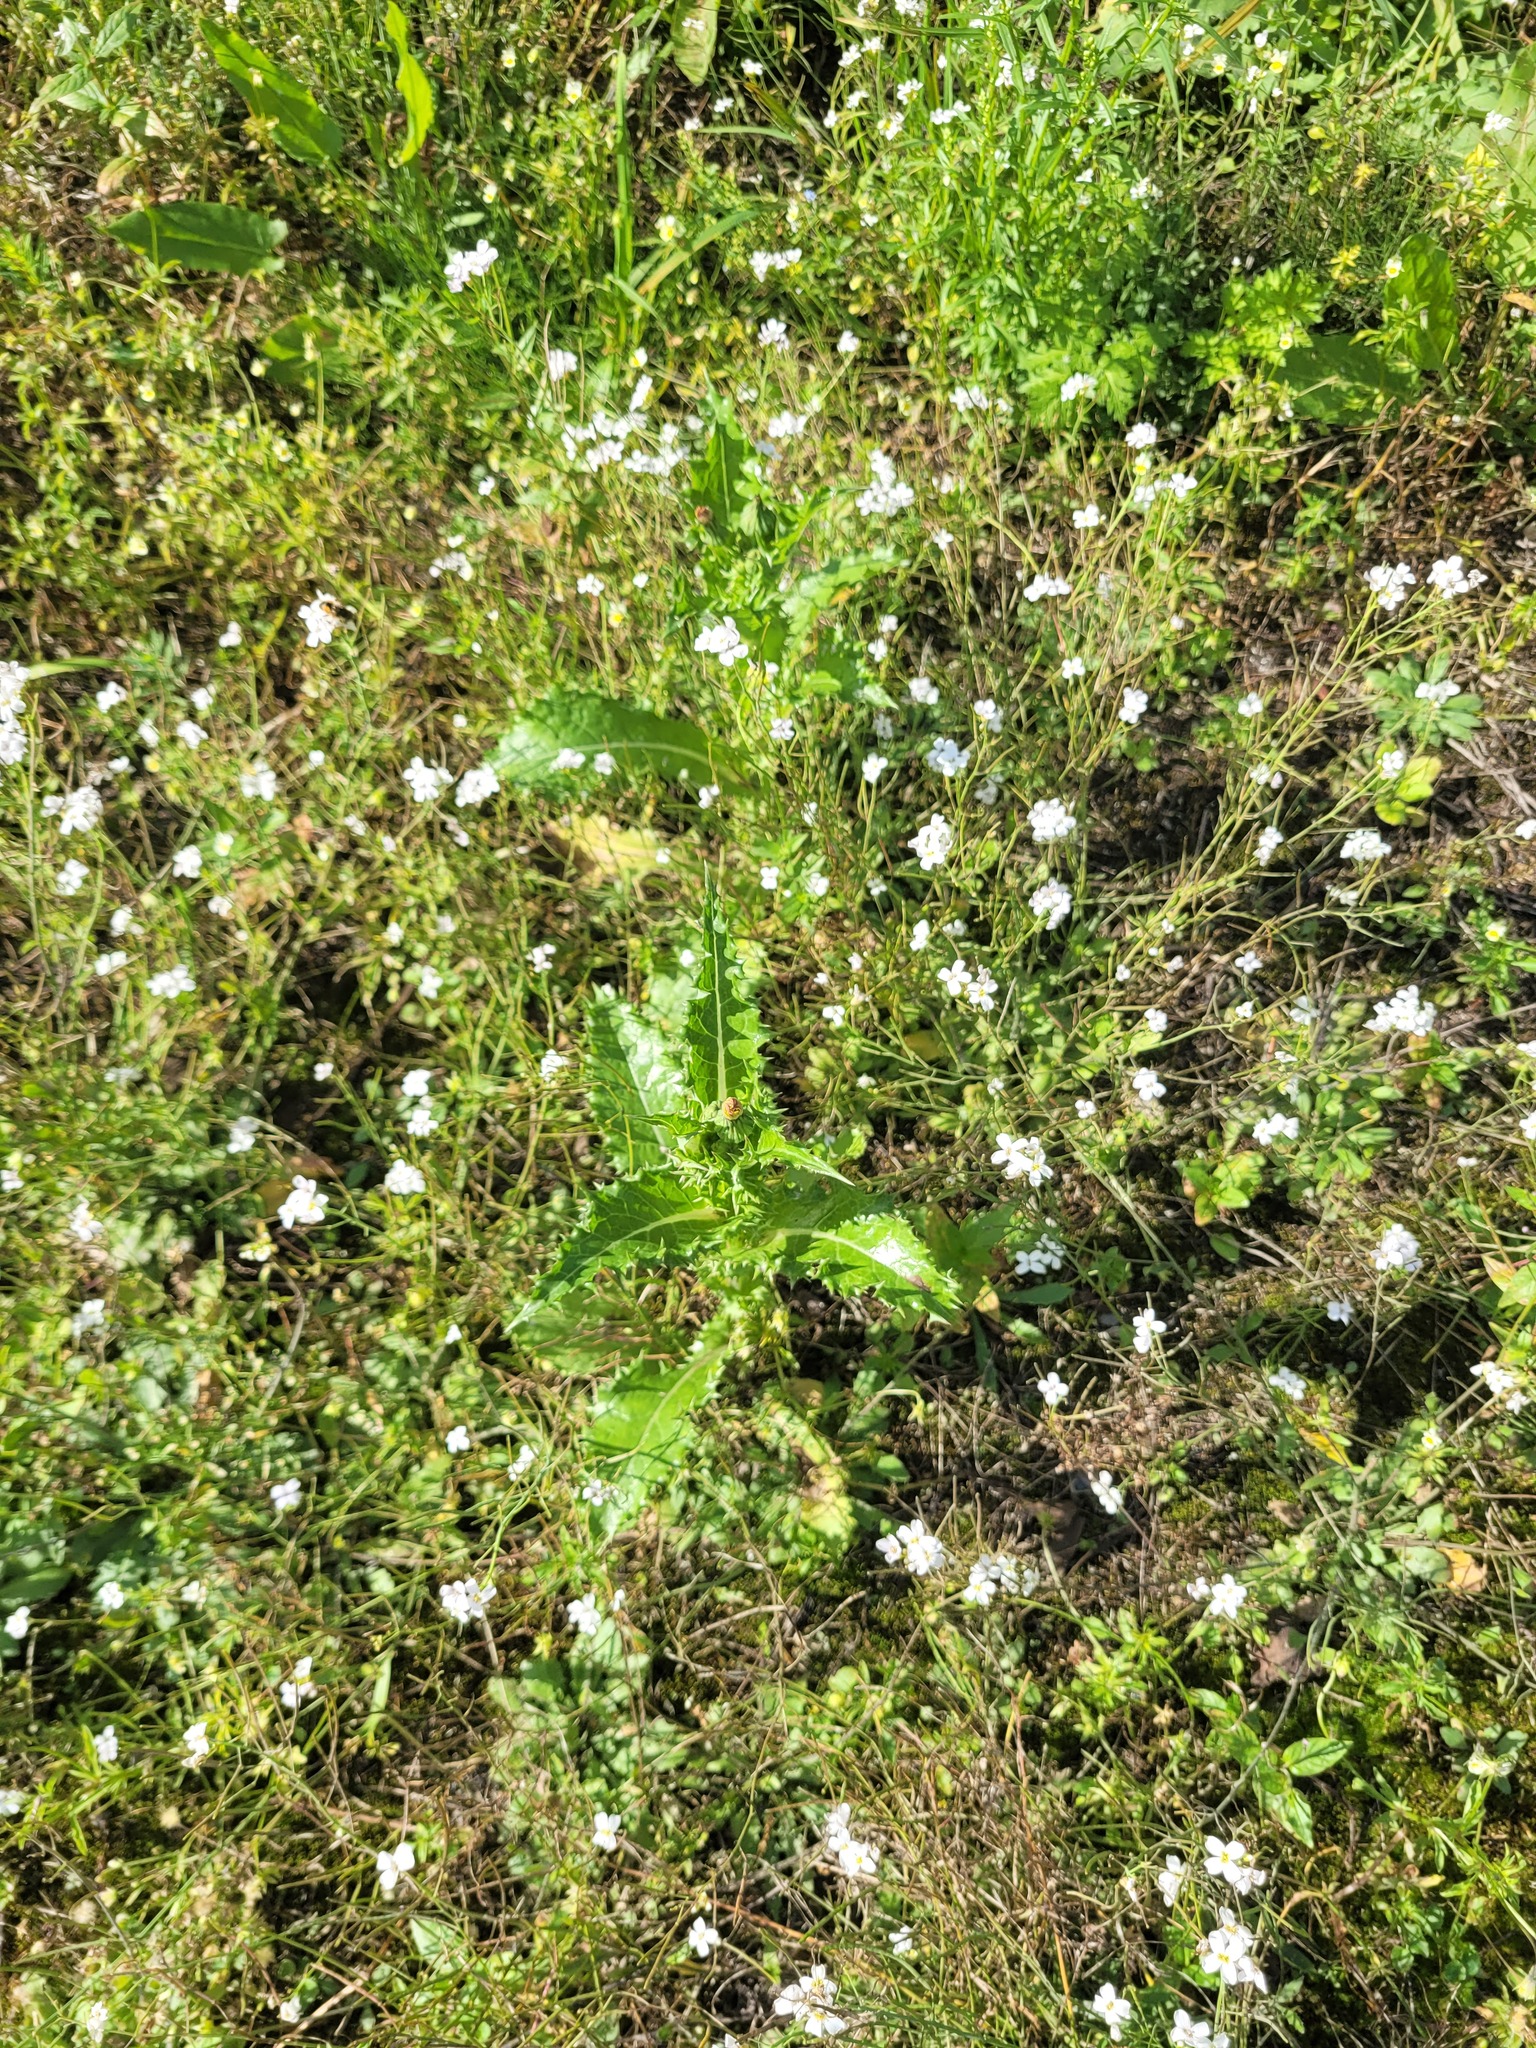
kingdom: Plantae
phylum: Tracheophyta
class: Magnoliopsida
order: Asterales
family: Asteraceae
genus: Sonchus
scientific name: Sonchus asper
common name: Prickly sow-thistle
